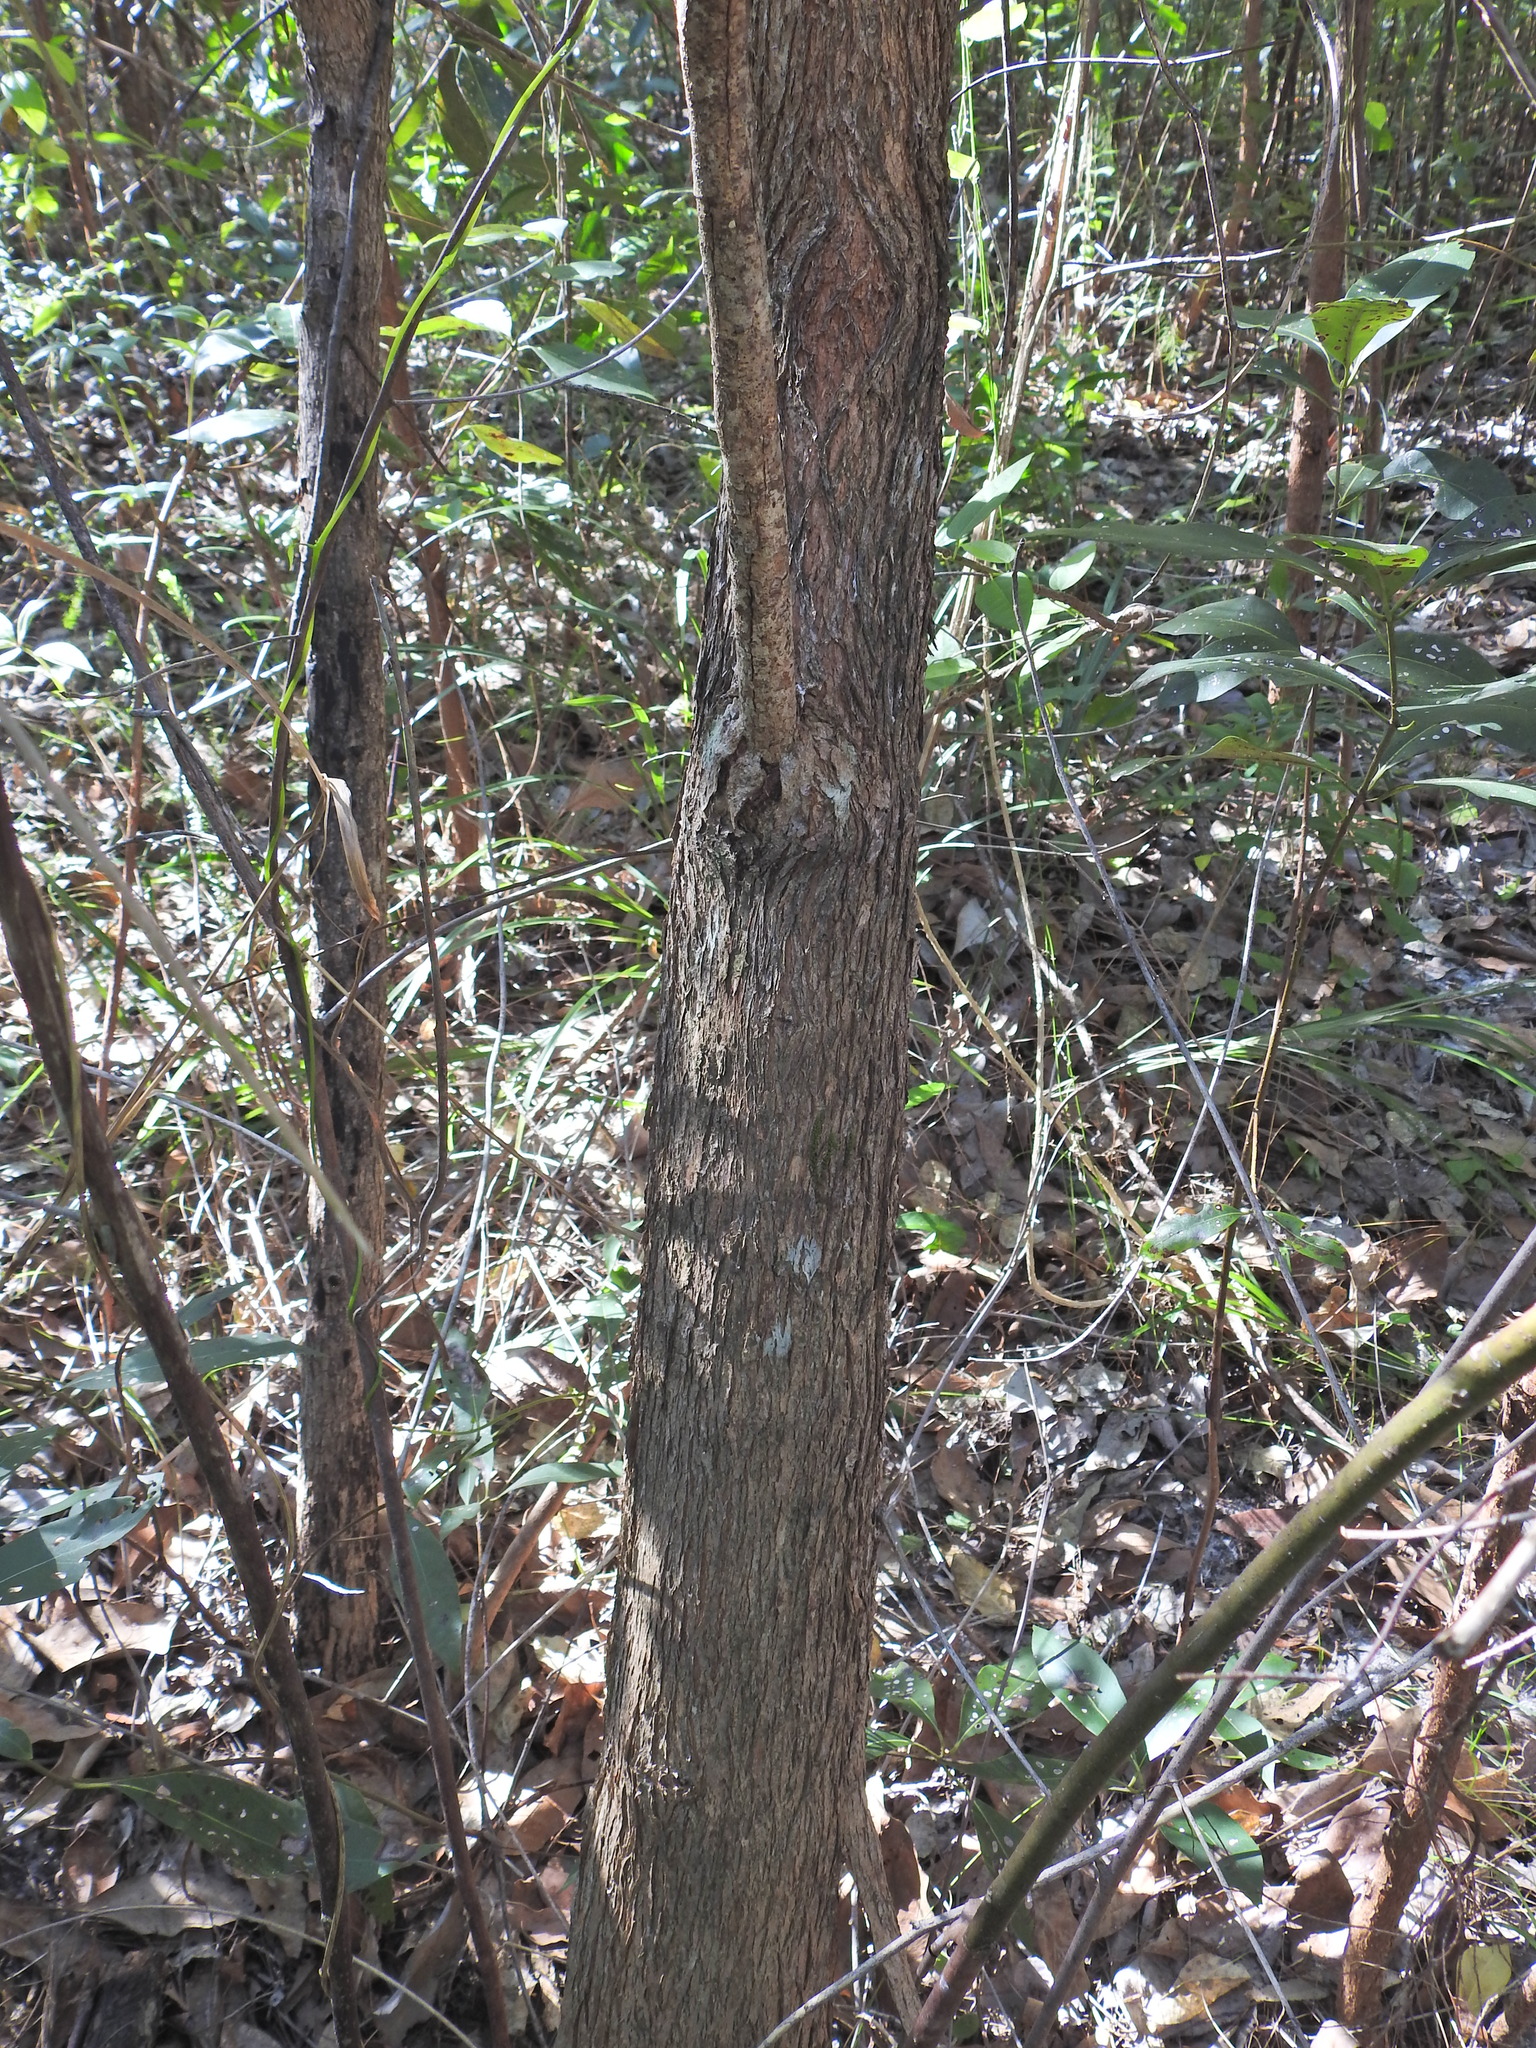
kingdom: Plantae
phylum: Tracheophyta
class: Magnoliopsida
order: Myrtales
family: Myrtaceae
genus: Lophostemon
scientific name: Lophostemon confertus
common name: Brisbane box
